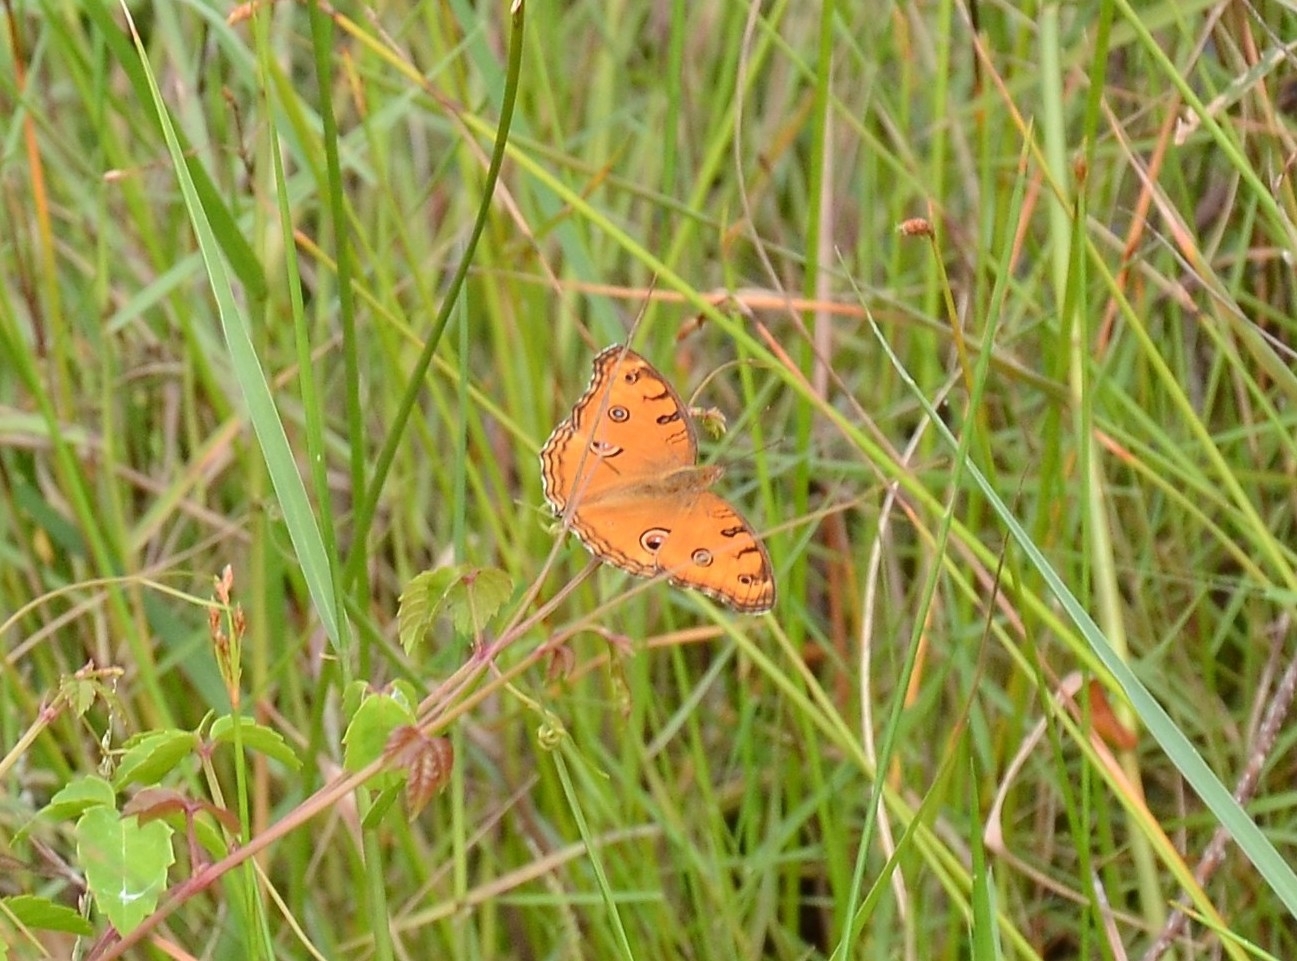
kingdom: Animalia
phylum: Arthropoda
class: Insecta
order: Lepidoptera
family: Nymphalidae
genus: Junonia
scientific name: Junonia almana
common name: Peacock pansy
